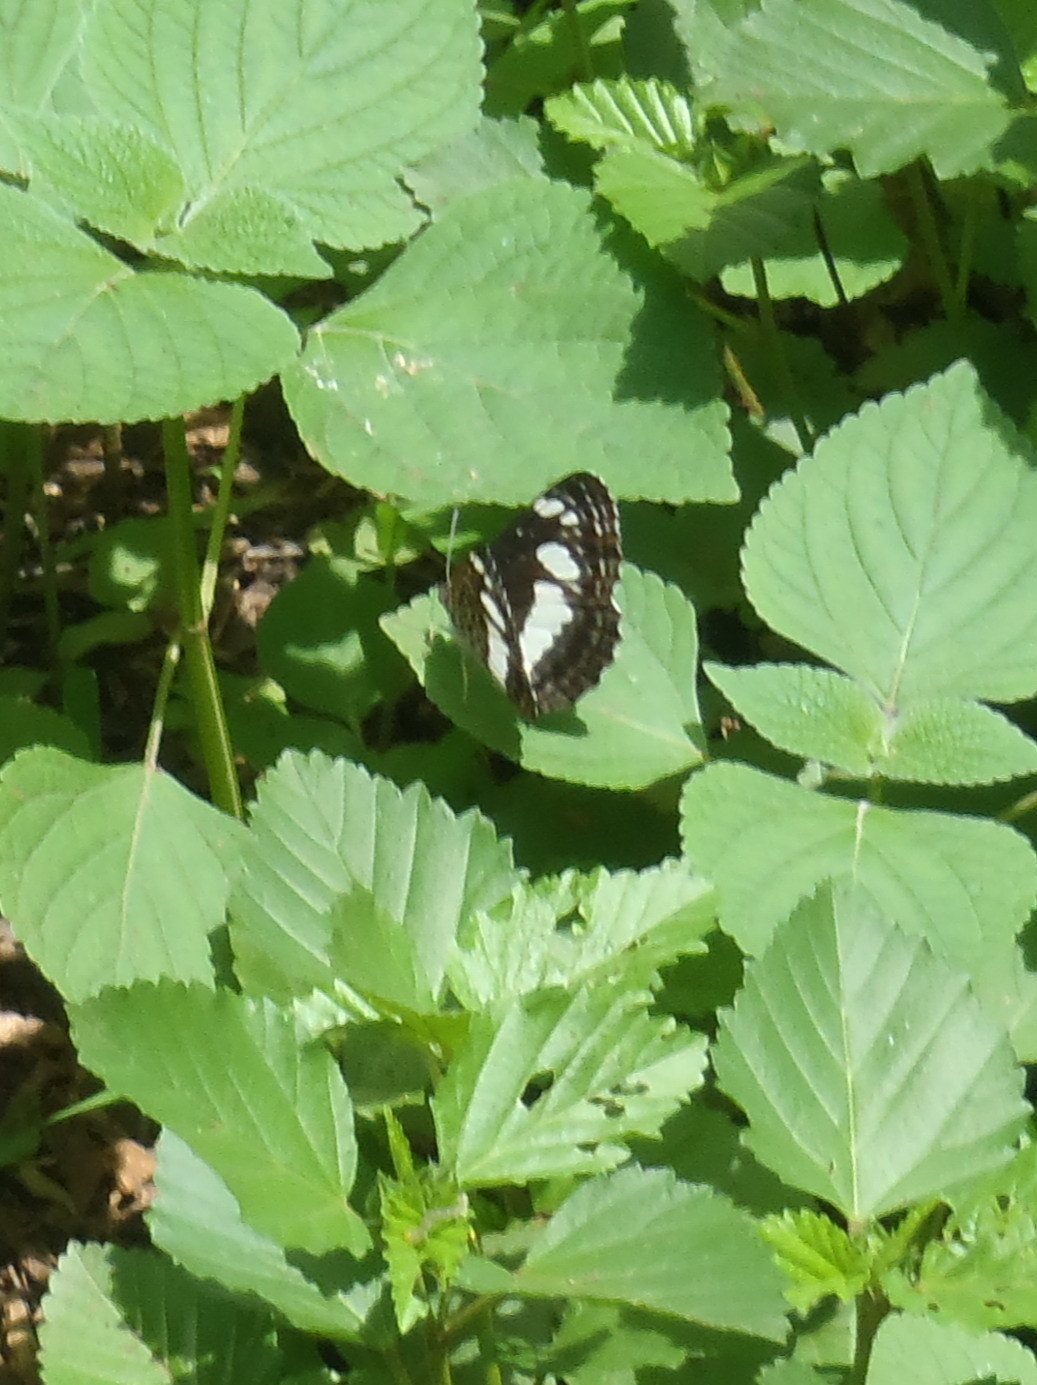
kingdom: Animalia
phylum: Arthropoda
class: Insecta
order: Lepidoptera
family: Nymphalidae
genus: Neptis
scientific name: Neptis saclava
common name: Small spotted sailor
